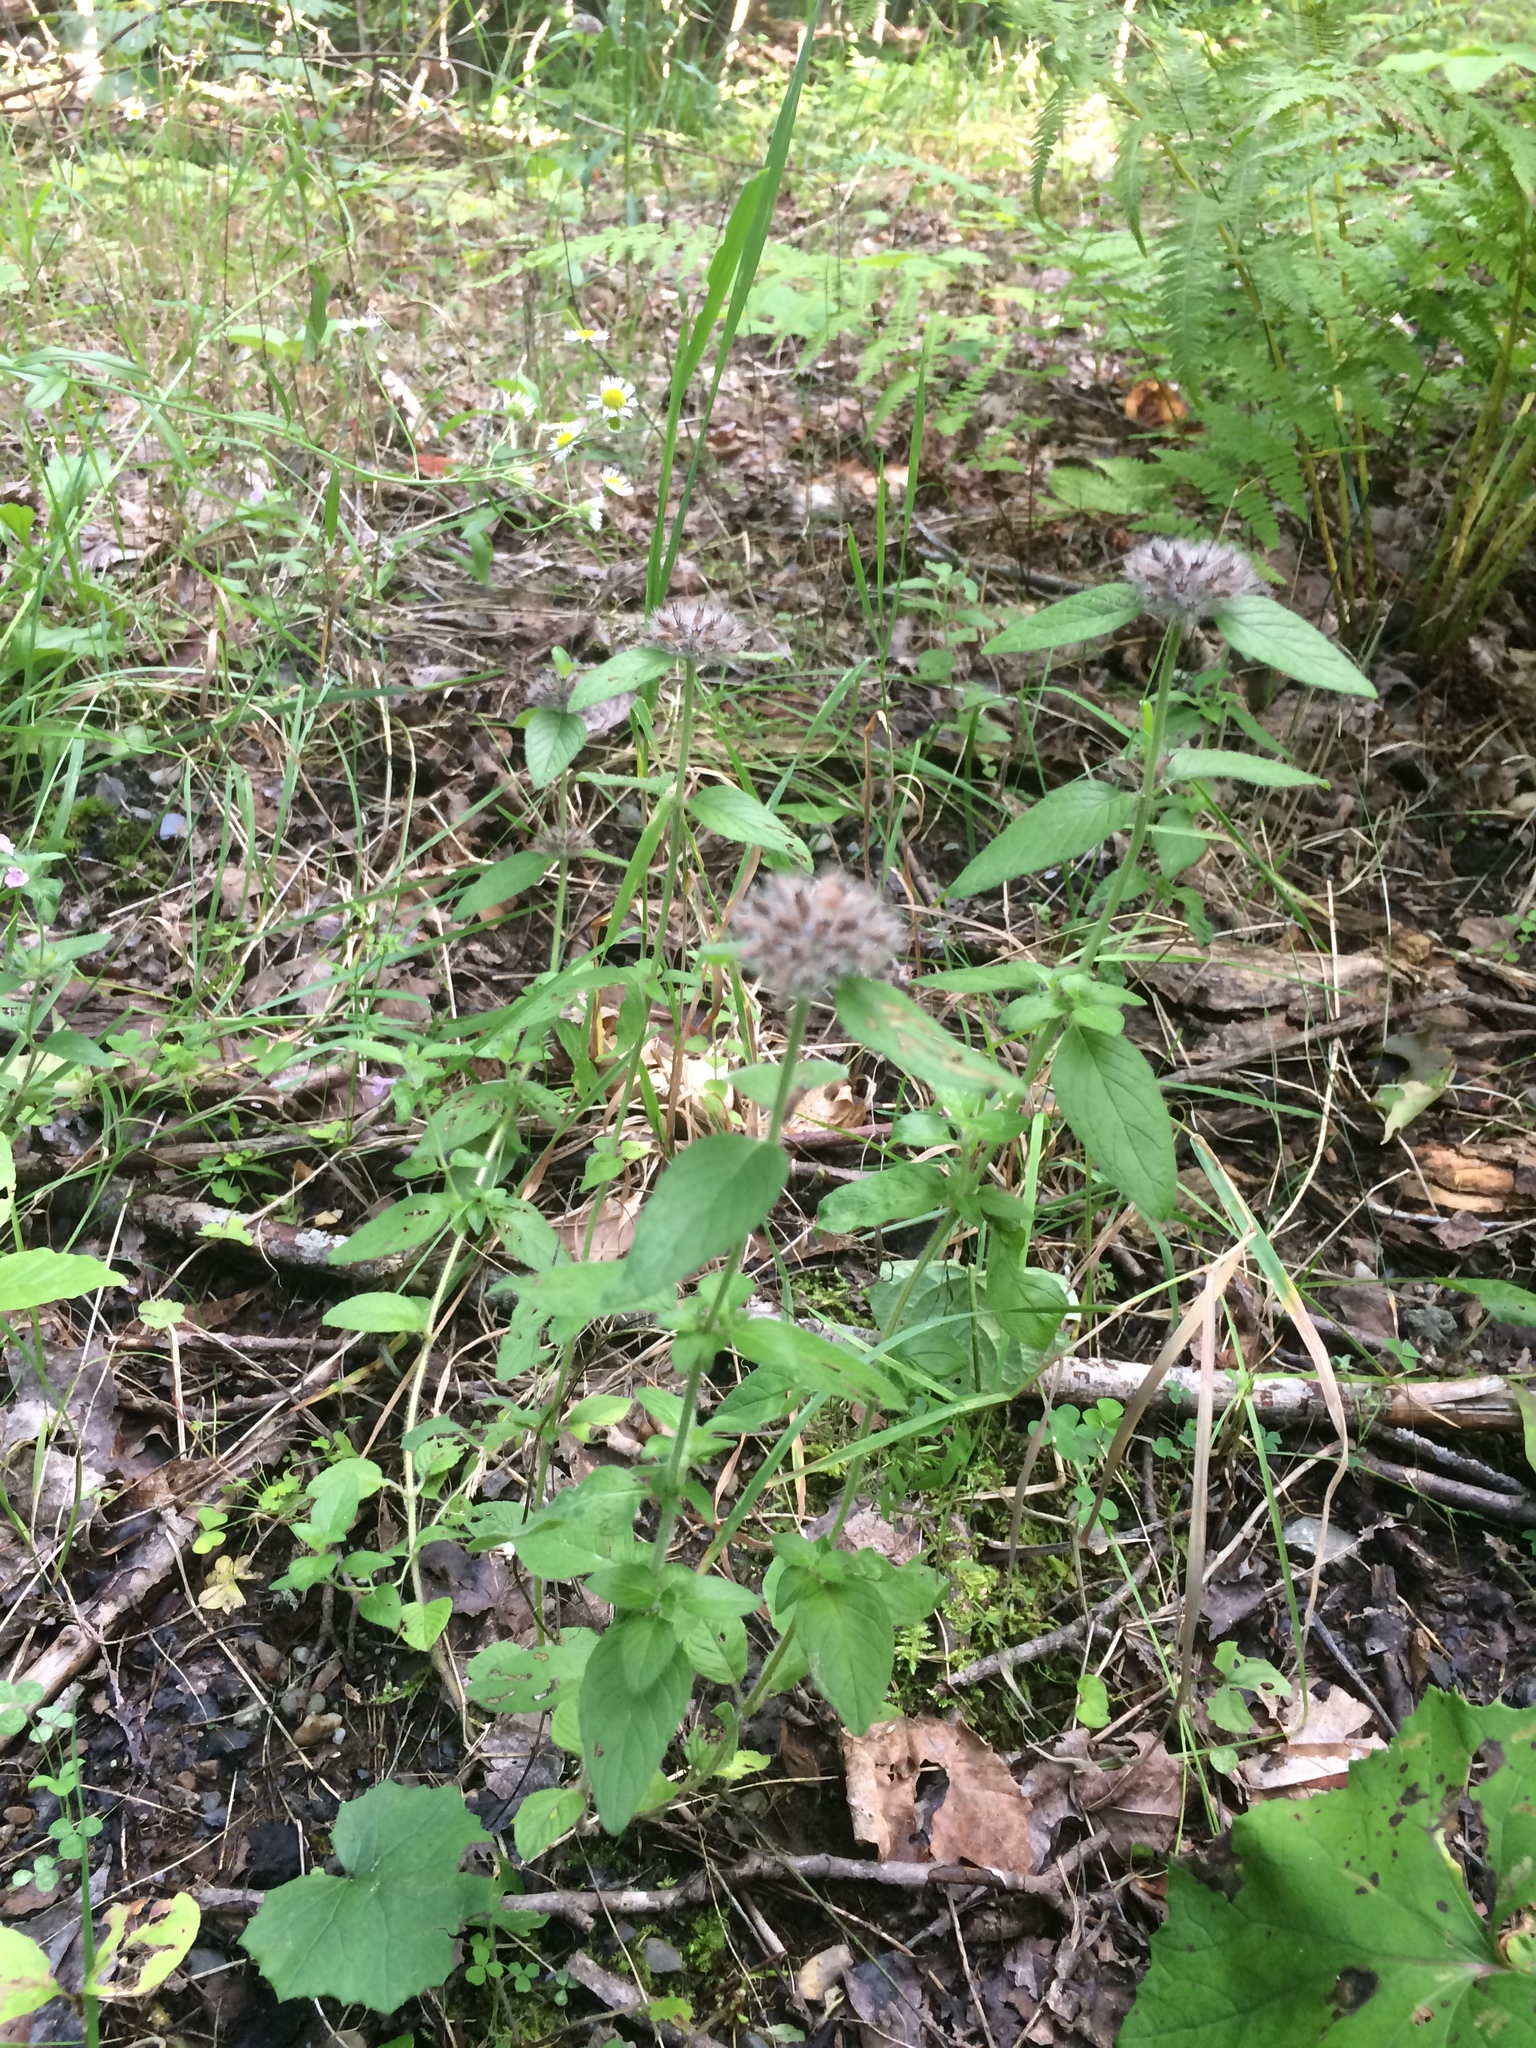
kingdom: Plantae
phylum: Tracheophyta
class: Magnoliopsida
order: Lamiales
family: Lamiaceae
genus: Clinopodium
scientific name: Clinopodium vulgare
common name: Wild basil
